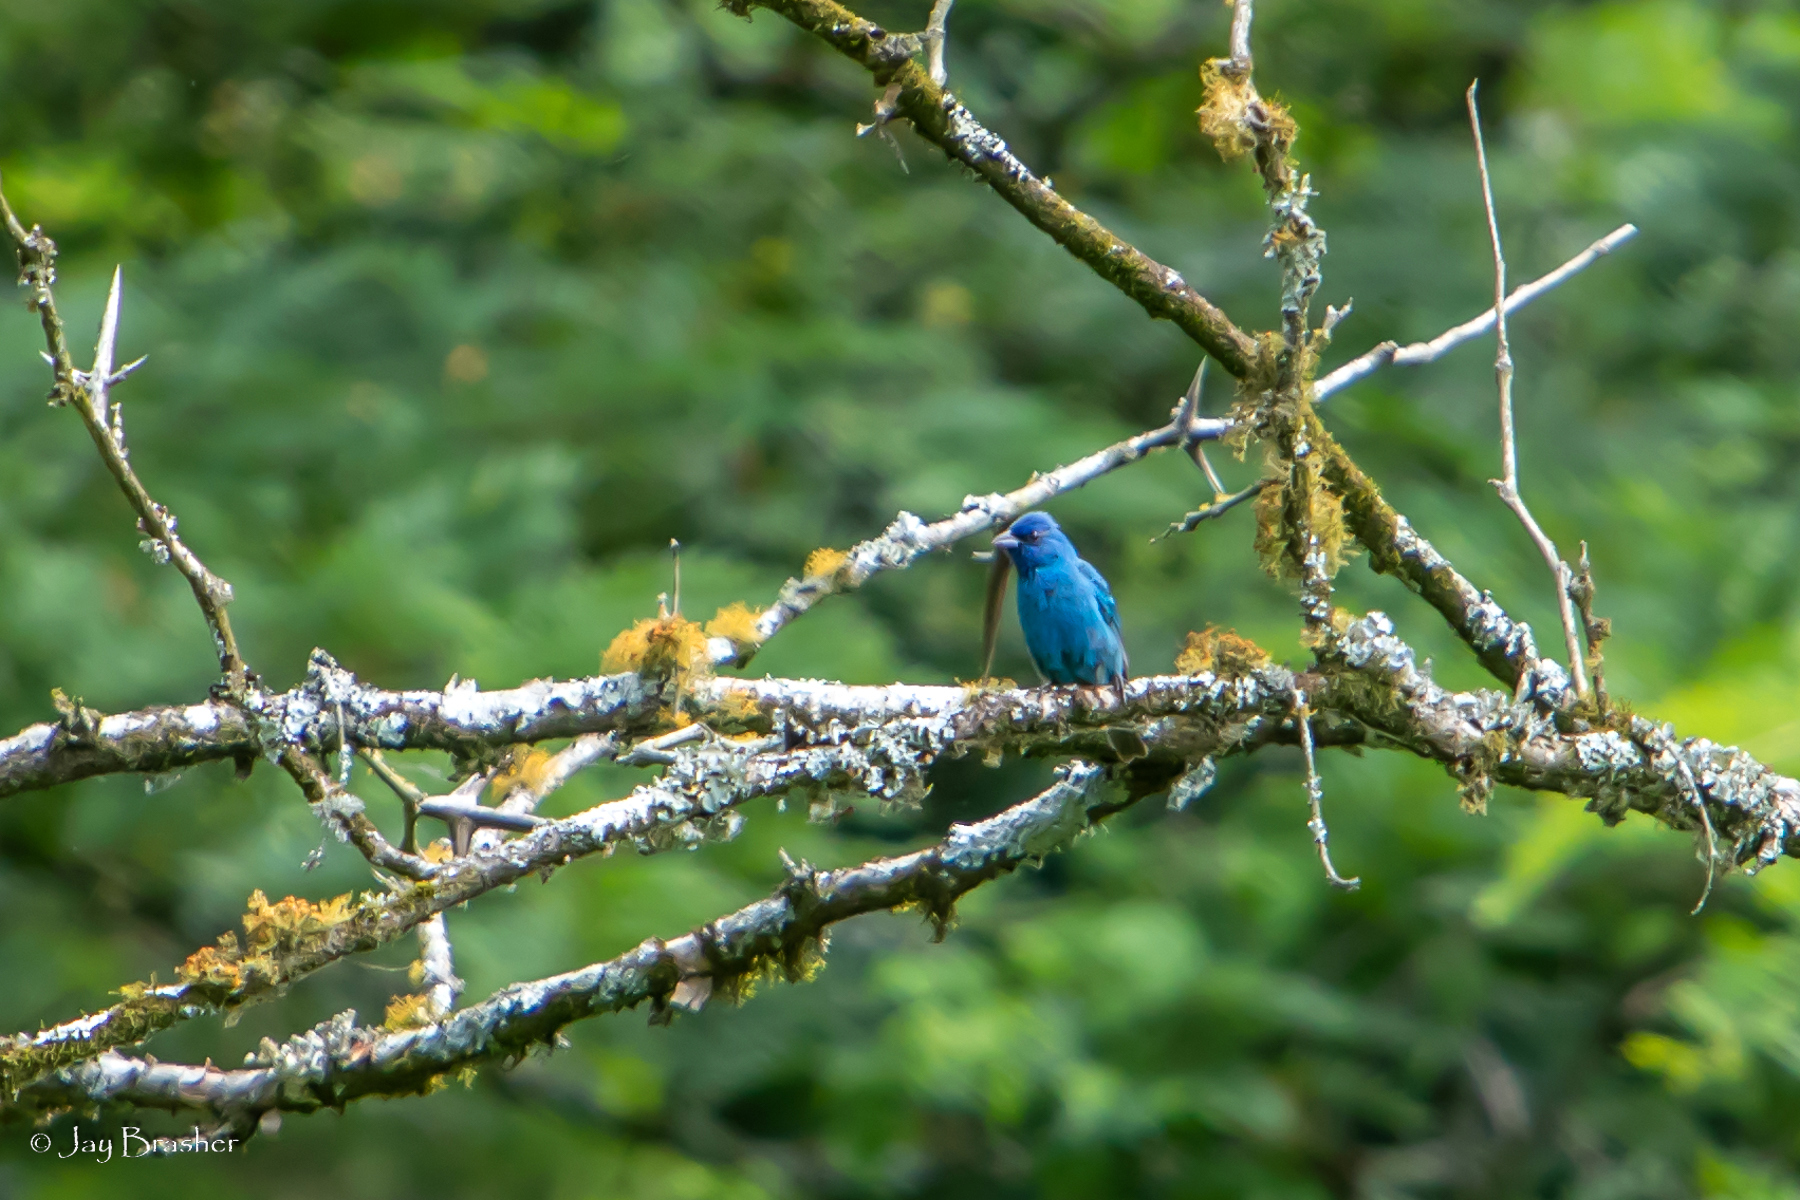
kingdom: Animalia
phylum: Chordata
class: Aves
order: Passeriformes
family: Cardinalidae
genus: Passerina
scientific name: Passerina cyanea
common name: Indigo bunting
